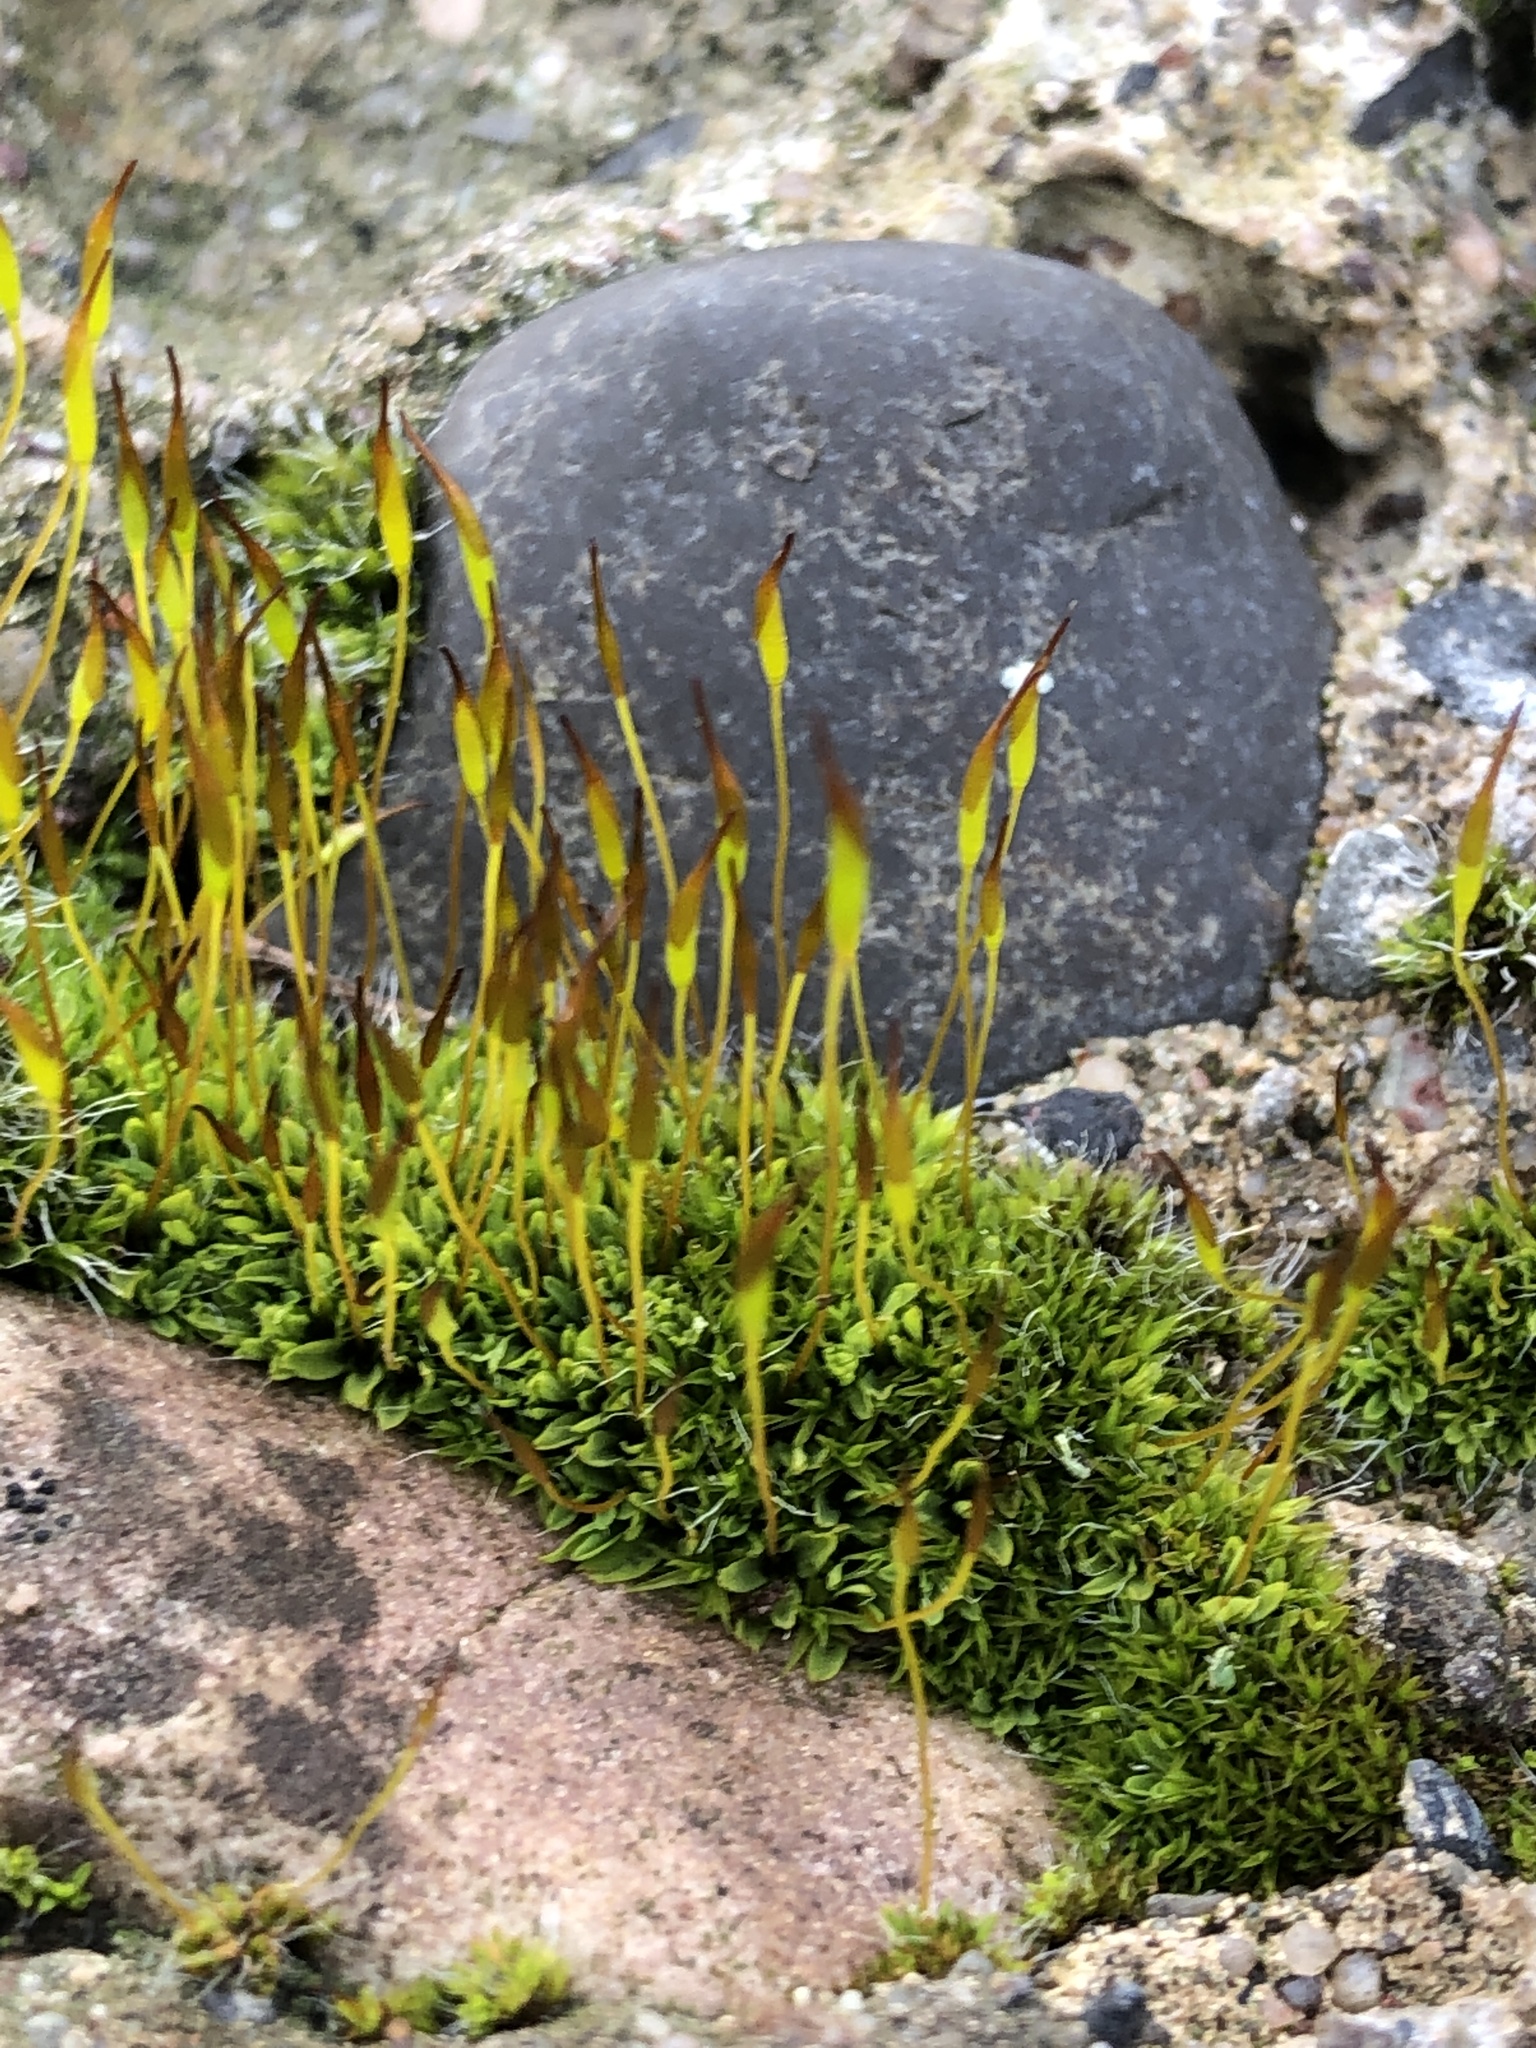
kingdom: Plantae
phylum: Bryophyta
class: Bryopsida
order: Pottiales
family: Pottiaceae
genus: Tortula
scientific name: Tortula muralis
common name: Wall screw-moss
